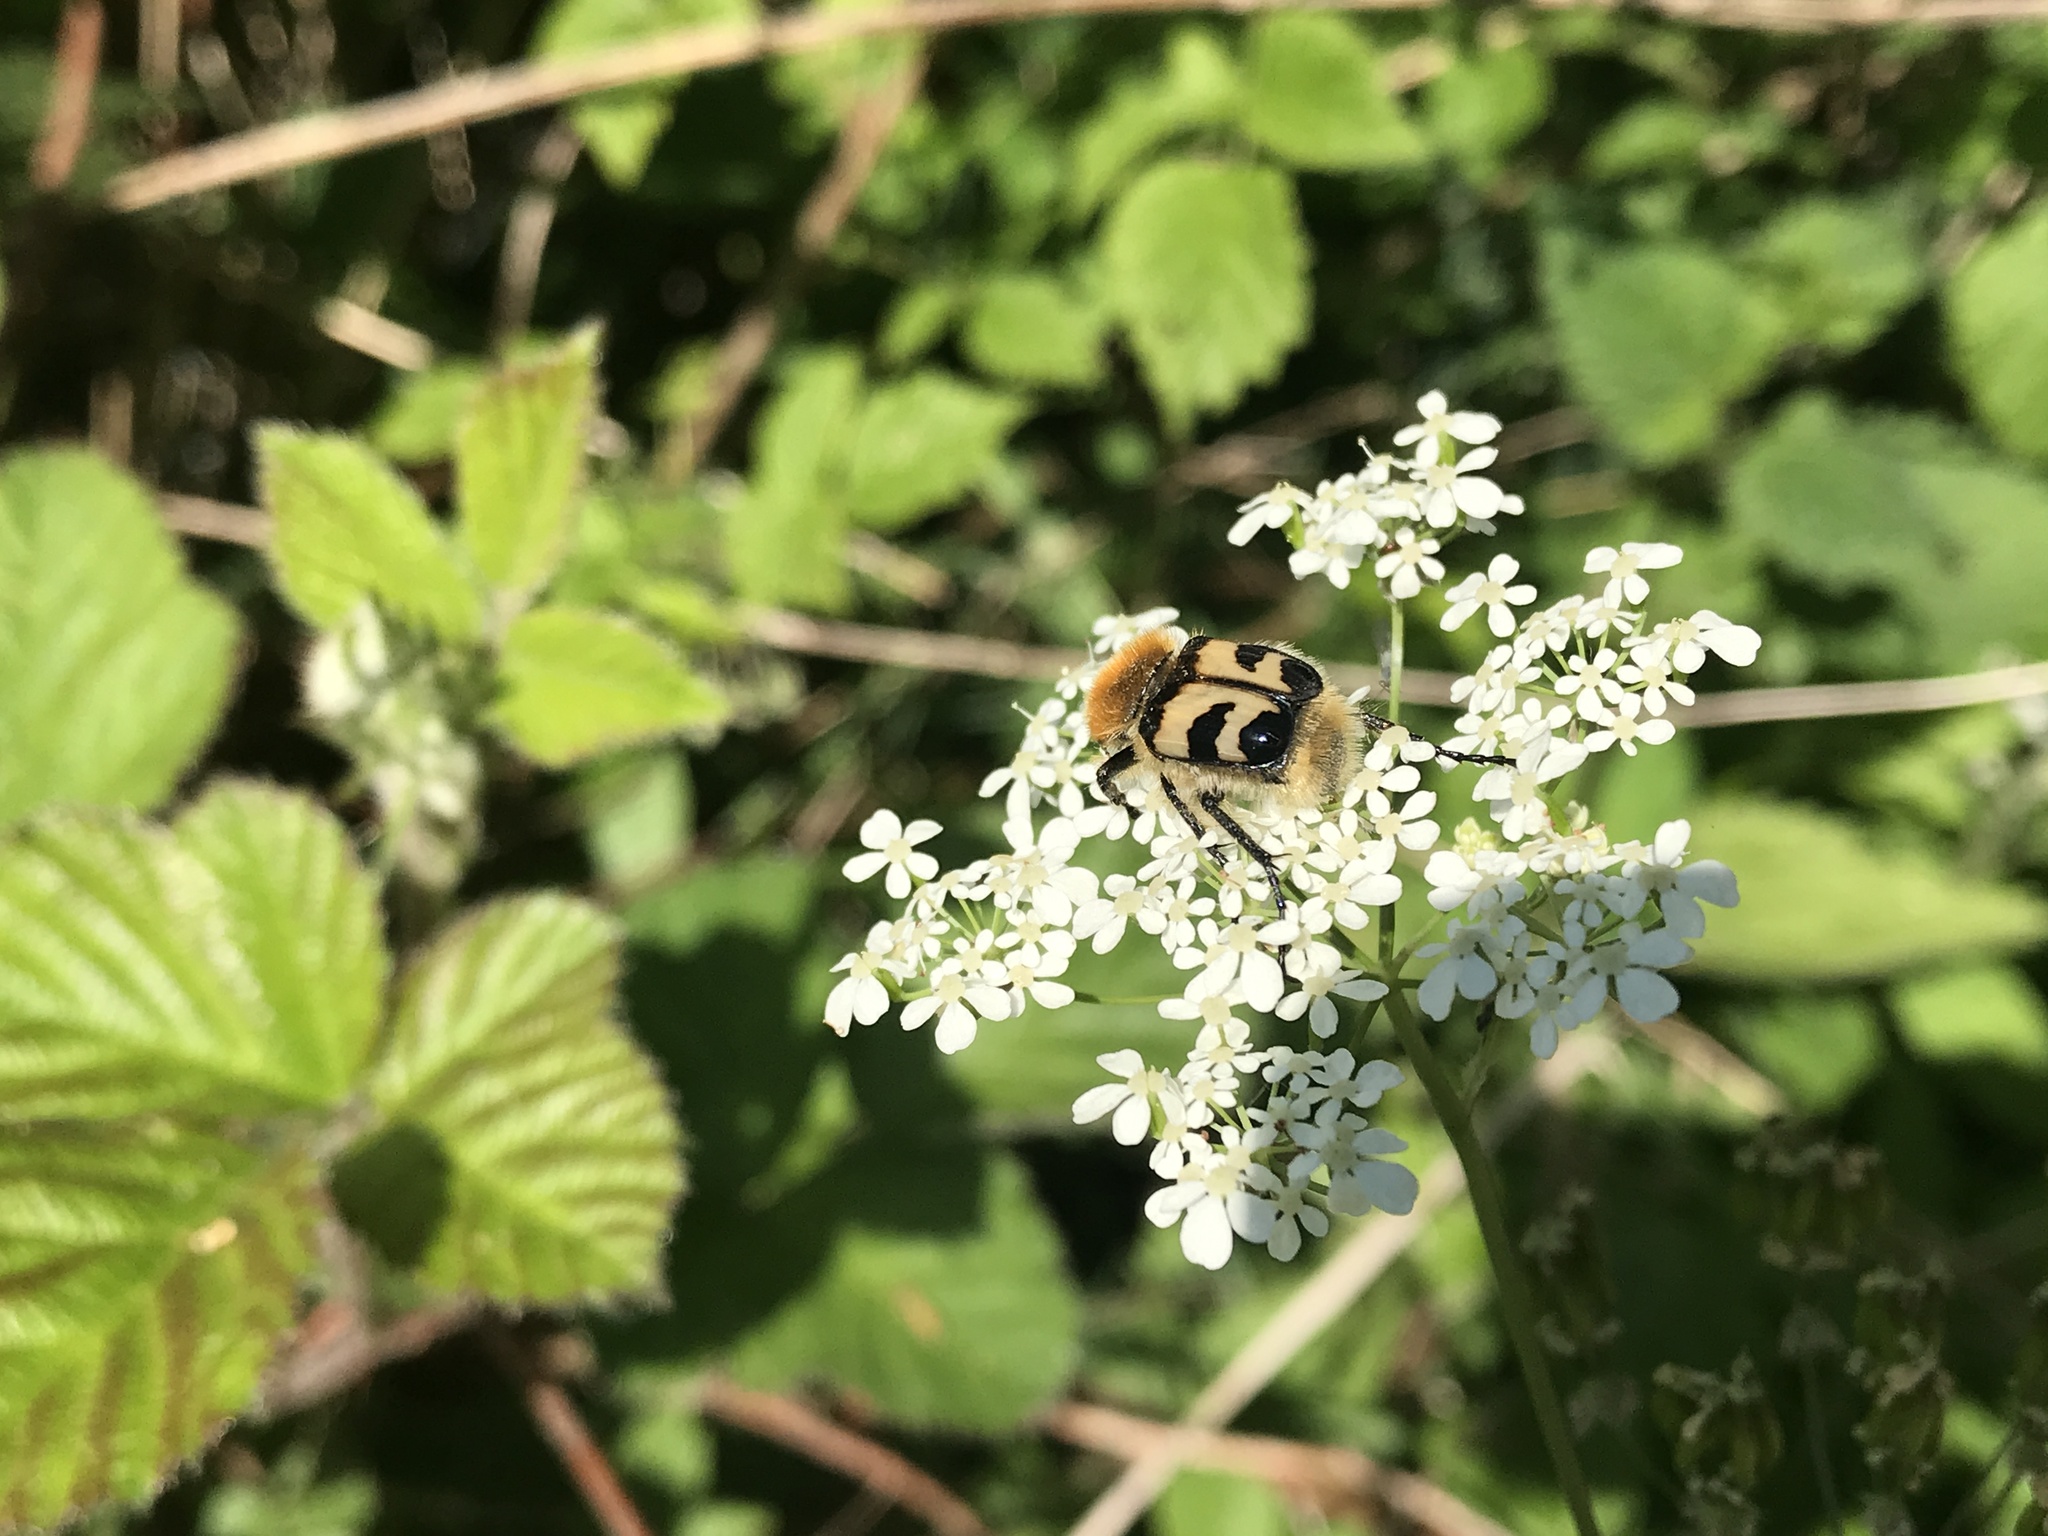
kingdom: Animalia
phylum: Arthropoda
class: Insecta
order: Coleoptera
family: Scarabaeidae
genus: Trichius
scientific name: Trichius fasciatus
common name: Bee beetle
